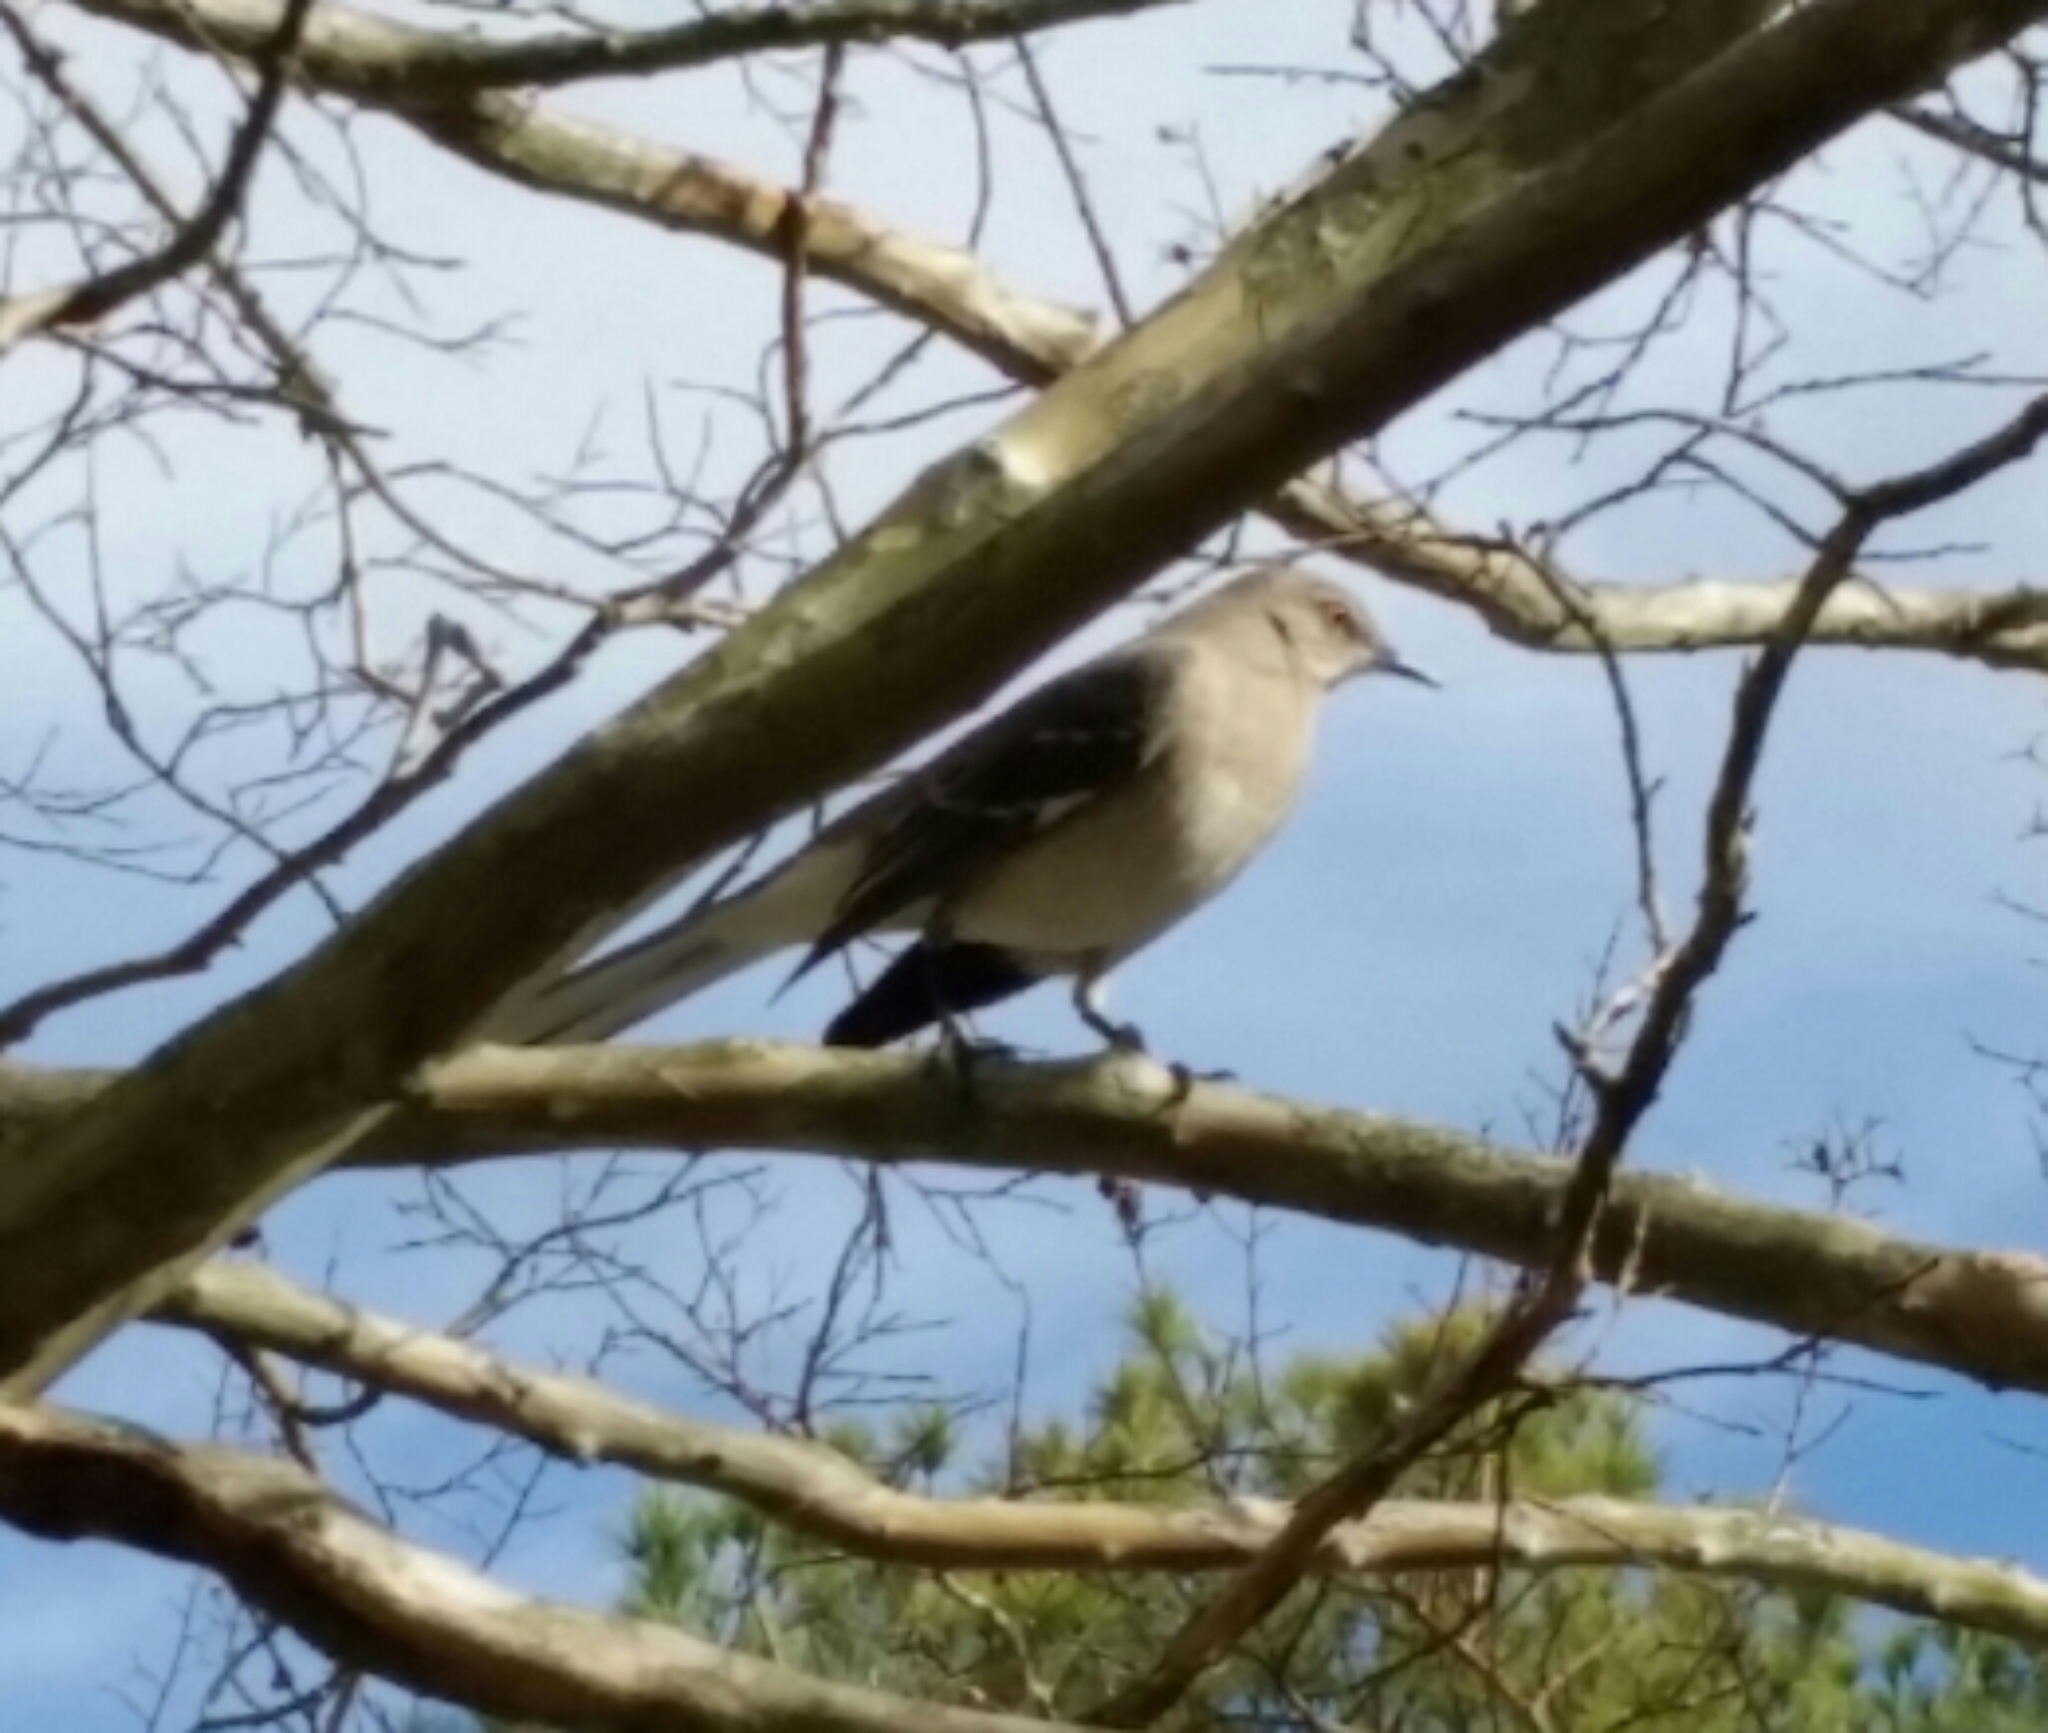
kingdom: Animalia
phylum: Chordata
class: Aves
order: Passeriformes
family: Mimidae
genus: Mimus
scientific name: Mimus polyglottos
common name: Northern mockingbird
